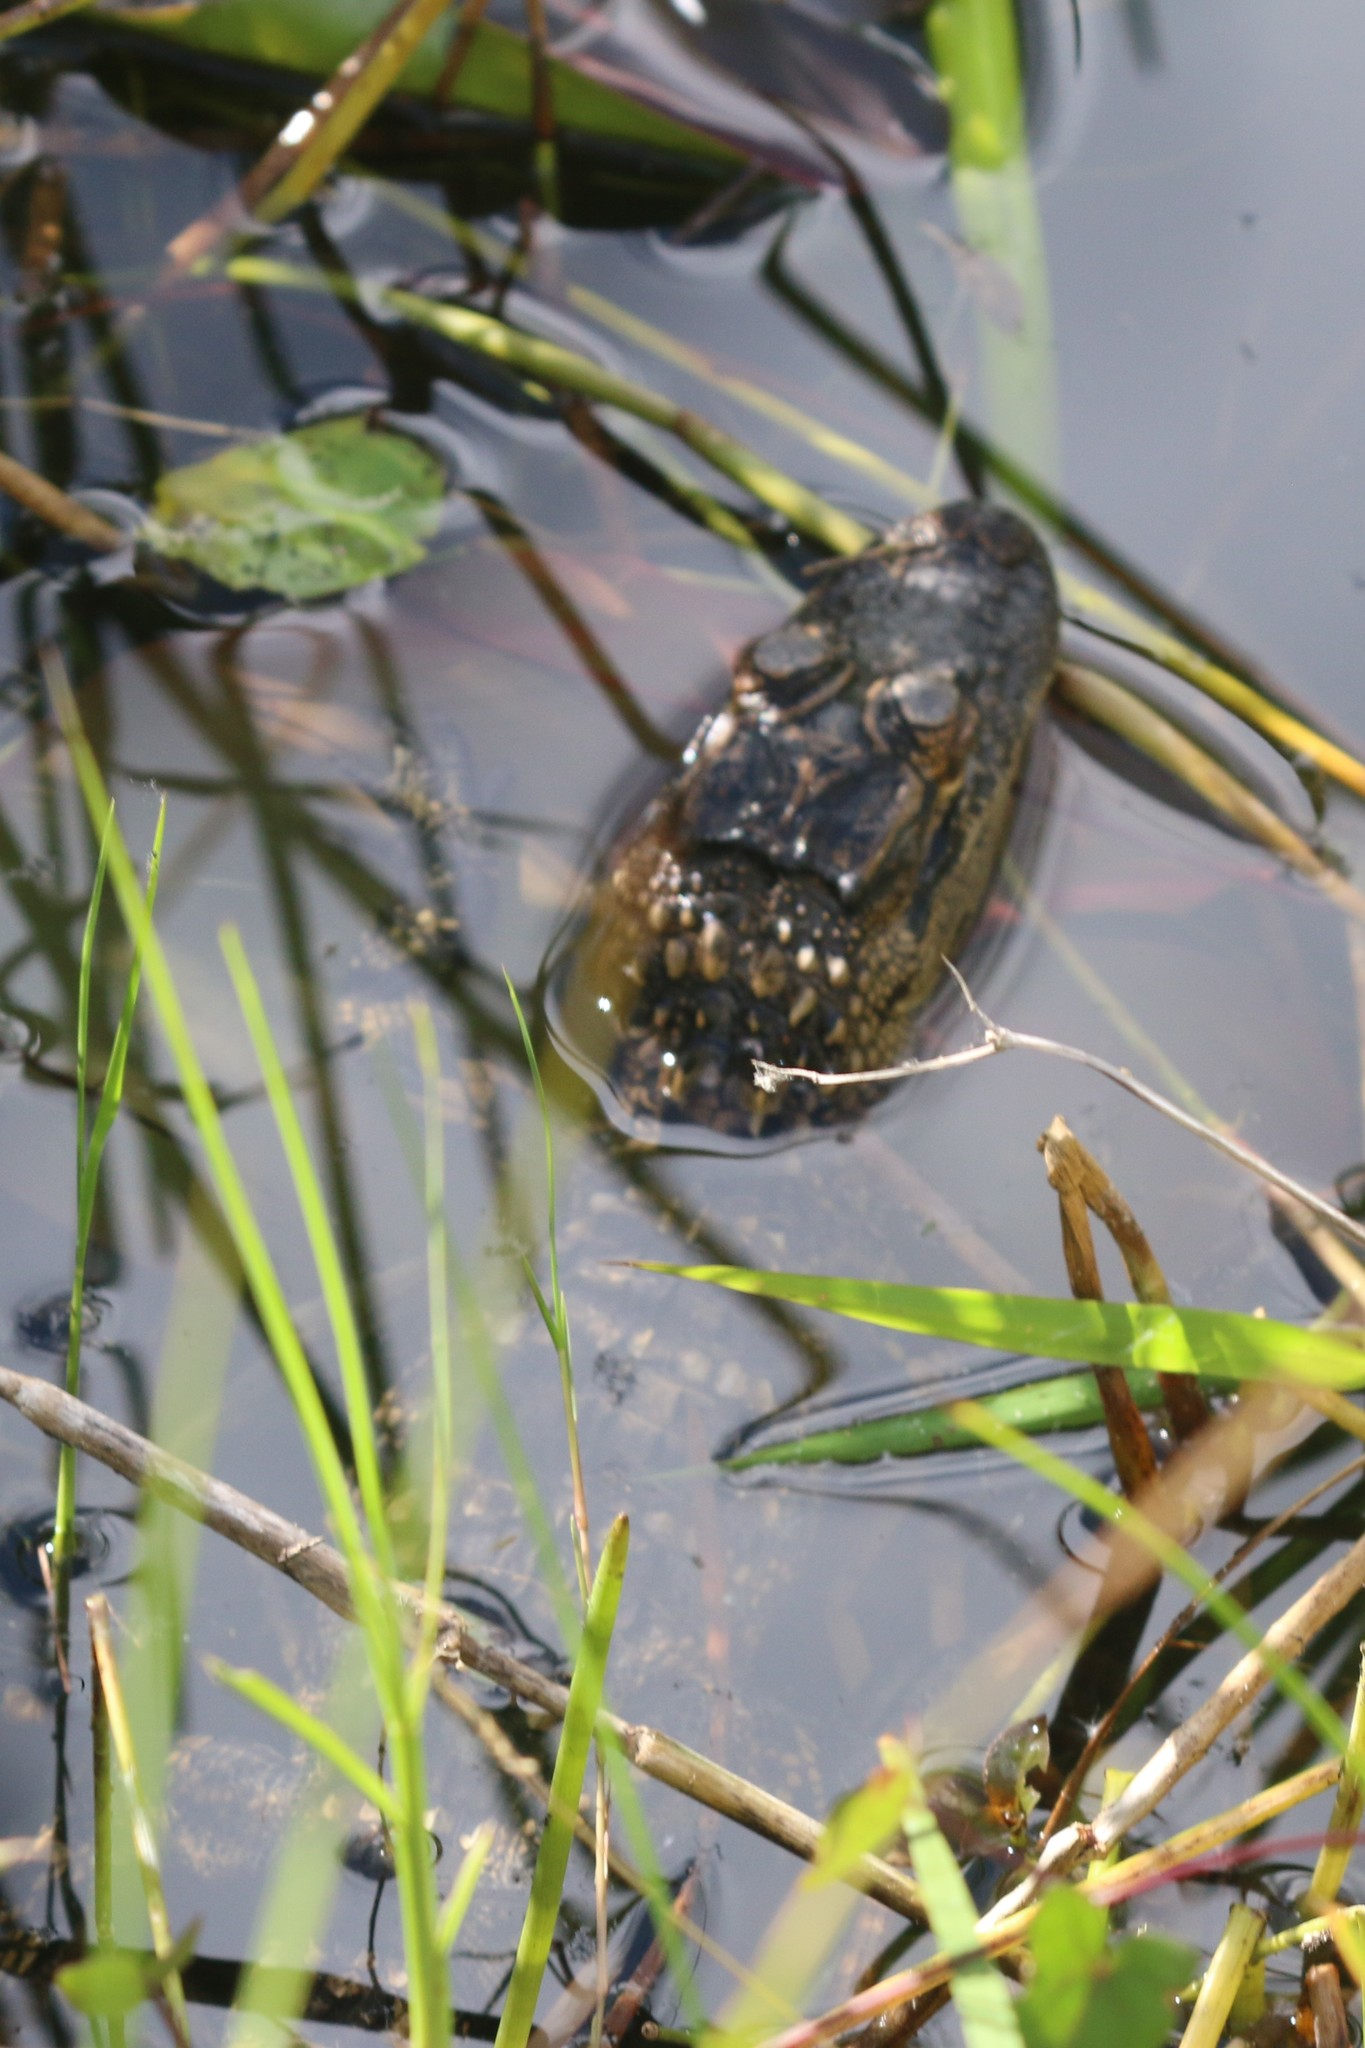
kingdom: Animalia
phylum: Chordata
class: Crocodylia
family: Alligatoridae
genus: Alligator
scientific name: Alligator mississippiensis
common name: American alligator
